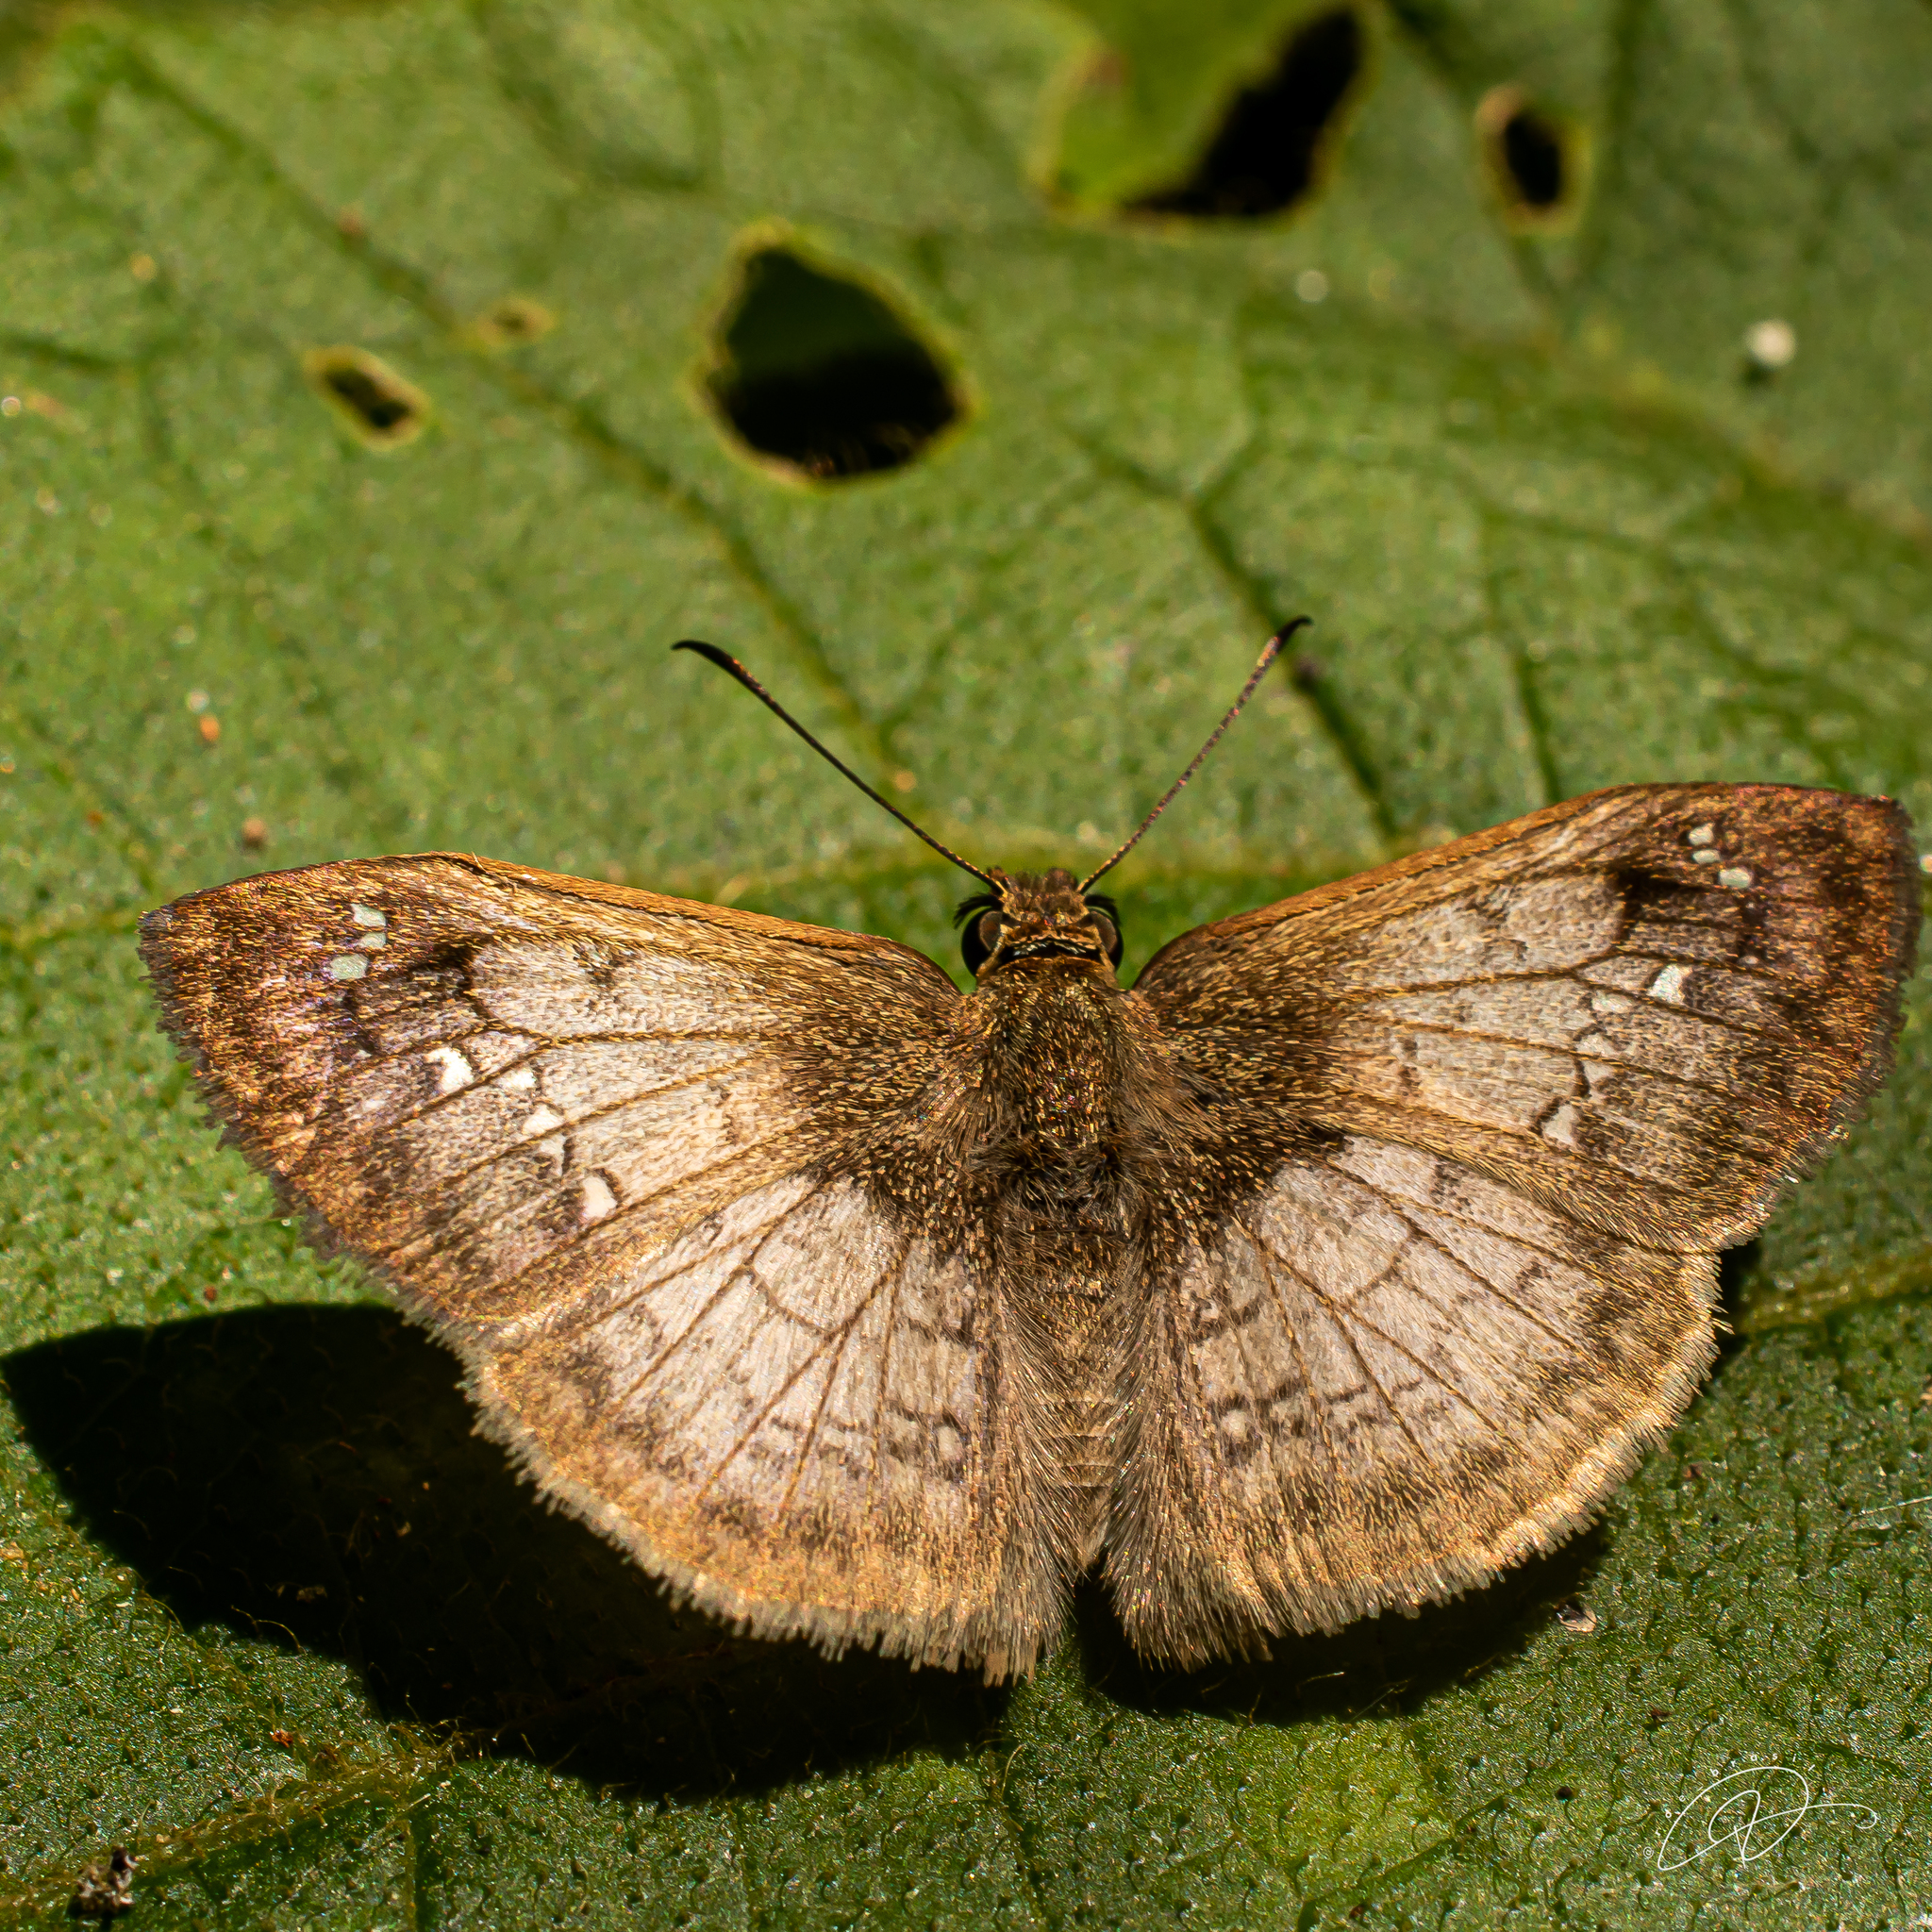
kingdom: Animalia
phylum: Arthropoda
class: Insecta
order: Lepidoptera
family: Hesperiidae
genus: Canesia
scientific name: Canesia
